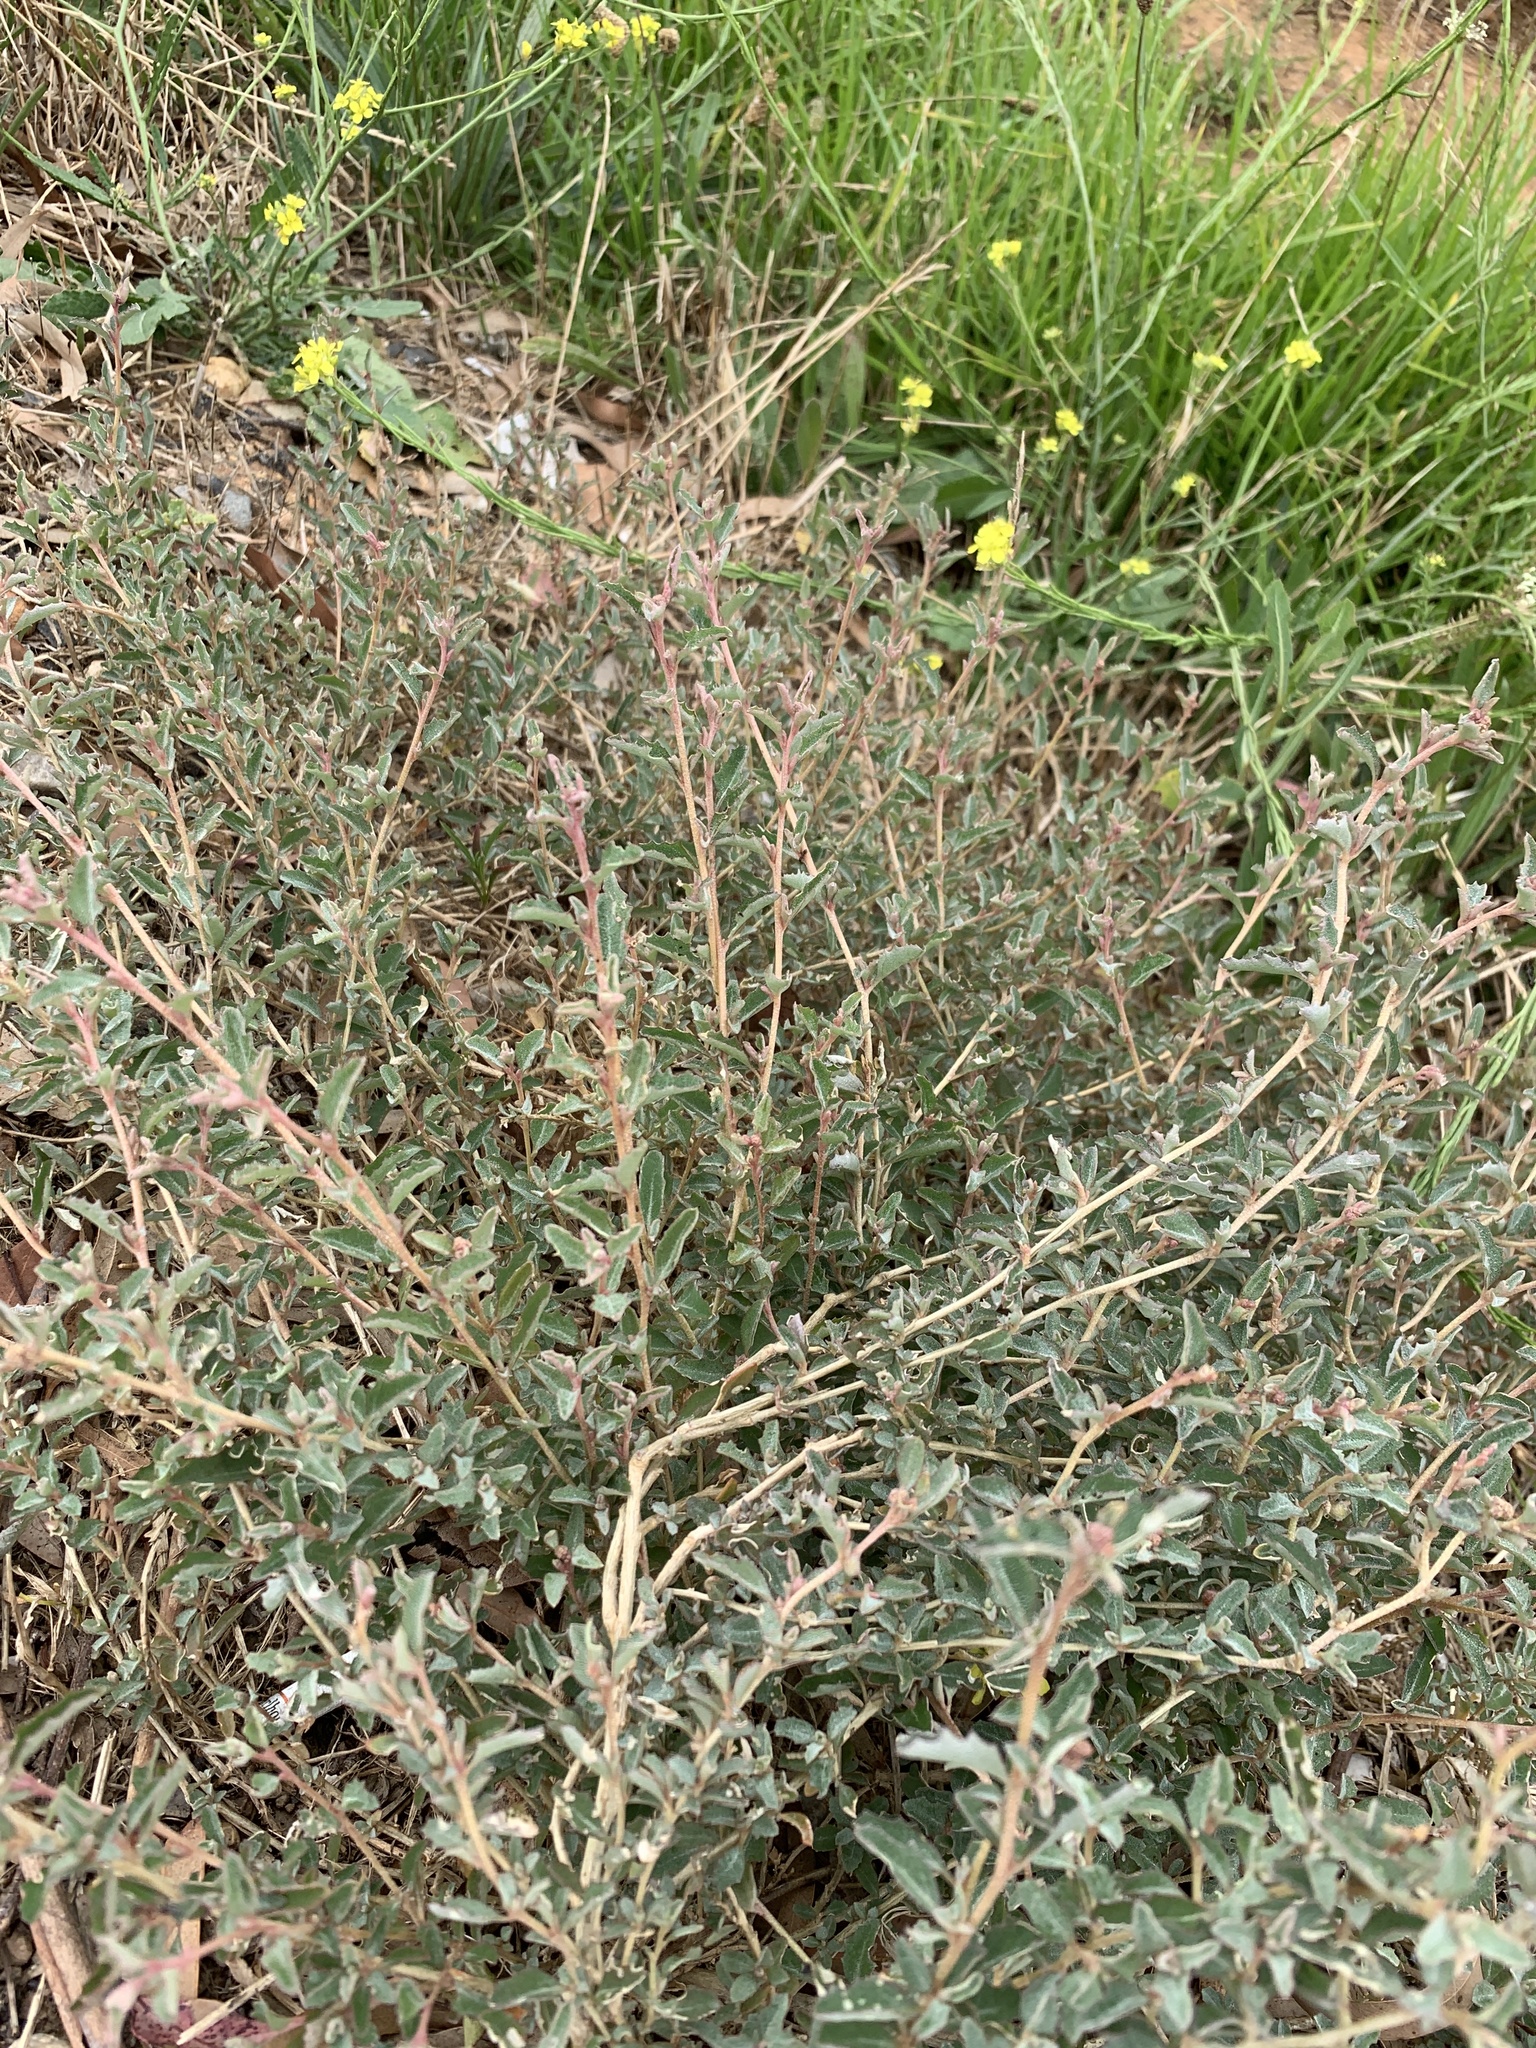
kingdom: Plantae
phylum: Tracheophyta
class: Magnoliopsida
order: Caryophyllales
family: Amaranthaceae
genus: Atriplex
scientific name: Atriplex semibaccata
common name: Australian saltbush
